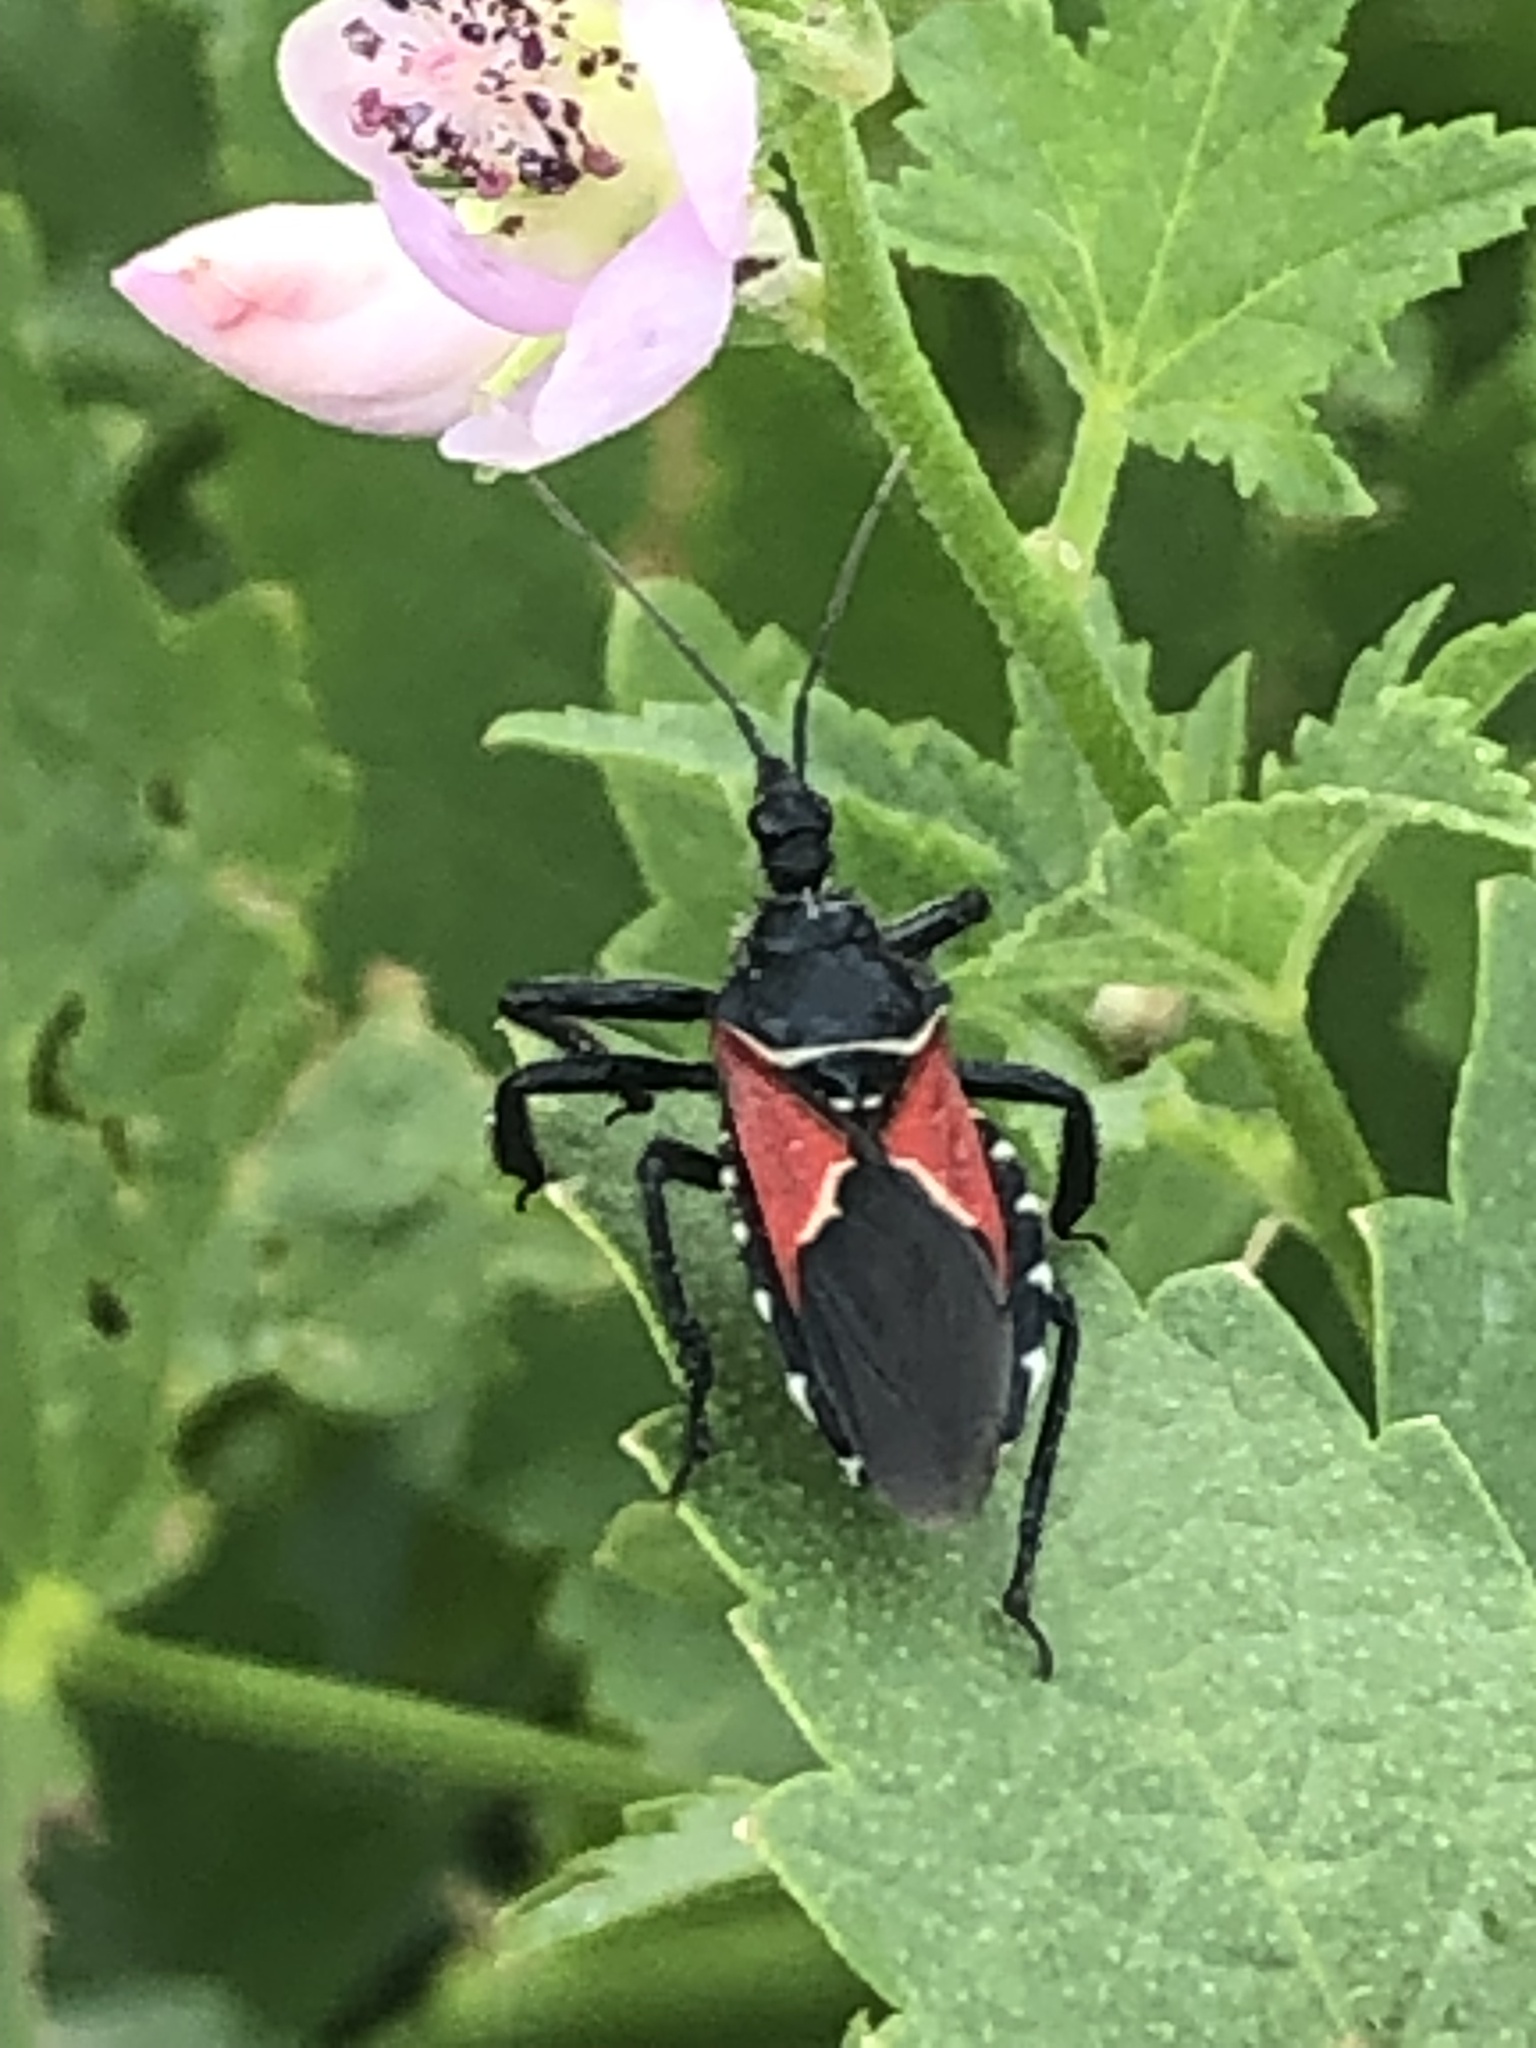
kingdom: Animalia
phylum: Arthropoda
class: Insecta
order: Hemiptera
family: Reduviidae
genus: Apiomerus
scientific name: Apiomerus montanus
